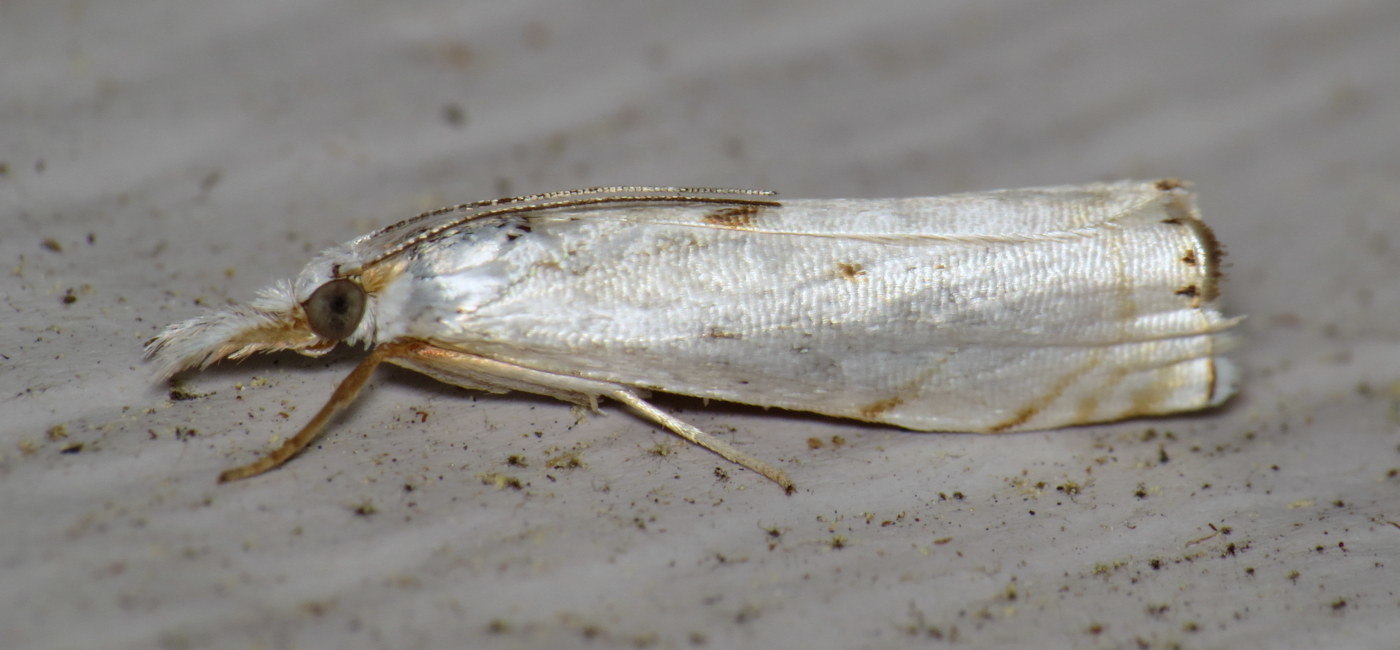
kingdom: Animalia
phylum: Arthropoda
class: Insecta
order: Lepidoptera
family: Crambidae
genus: Microcrambus
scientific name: Microcrambus biguttellus
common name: Gold-stripe grass-veneer moth
